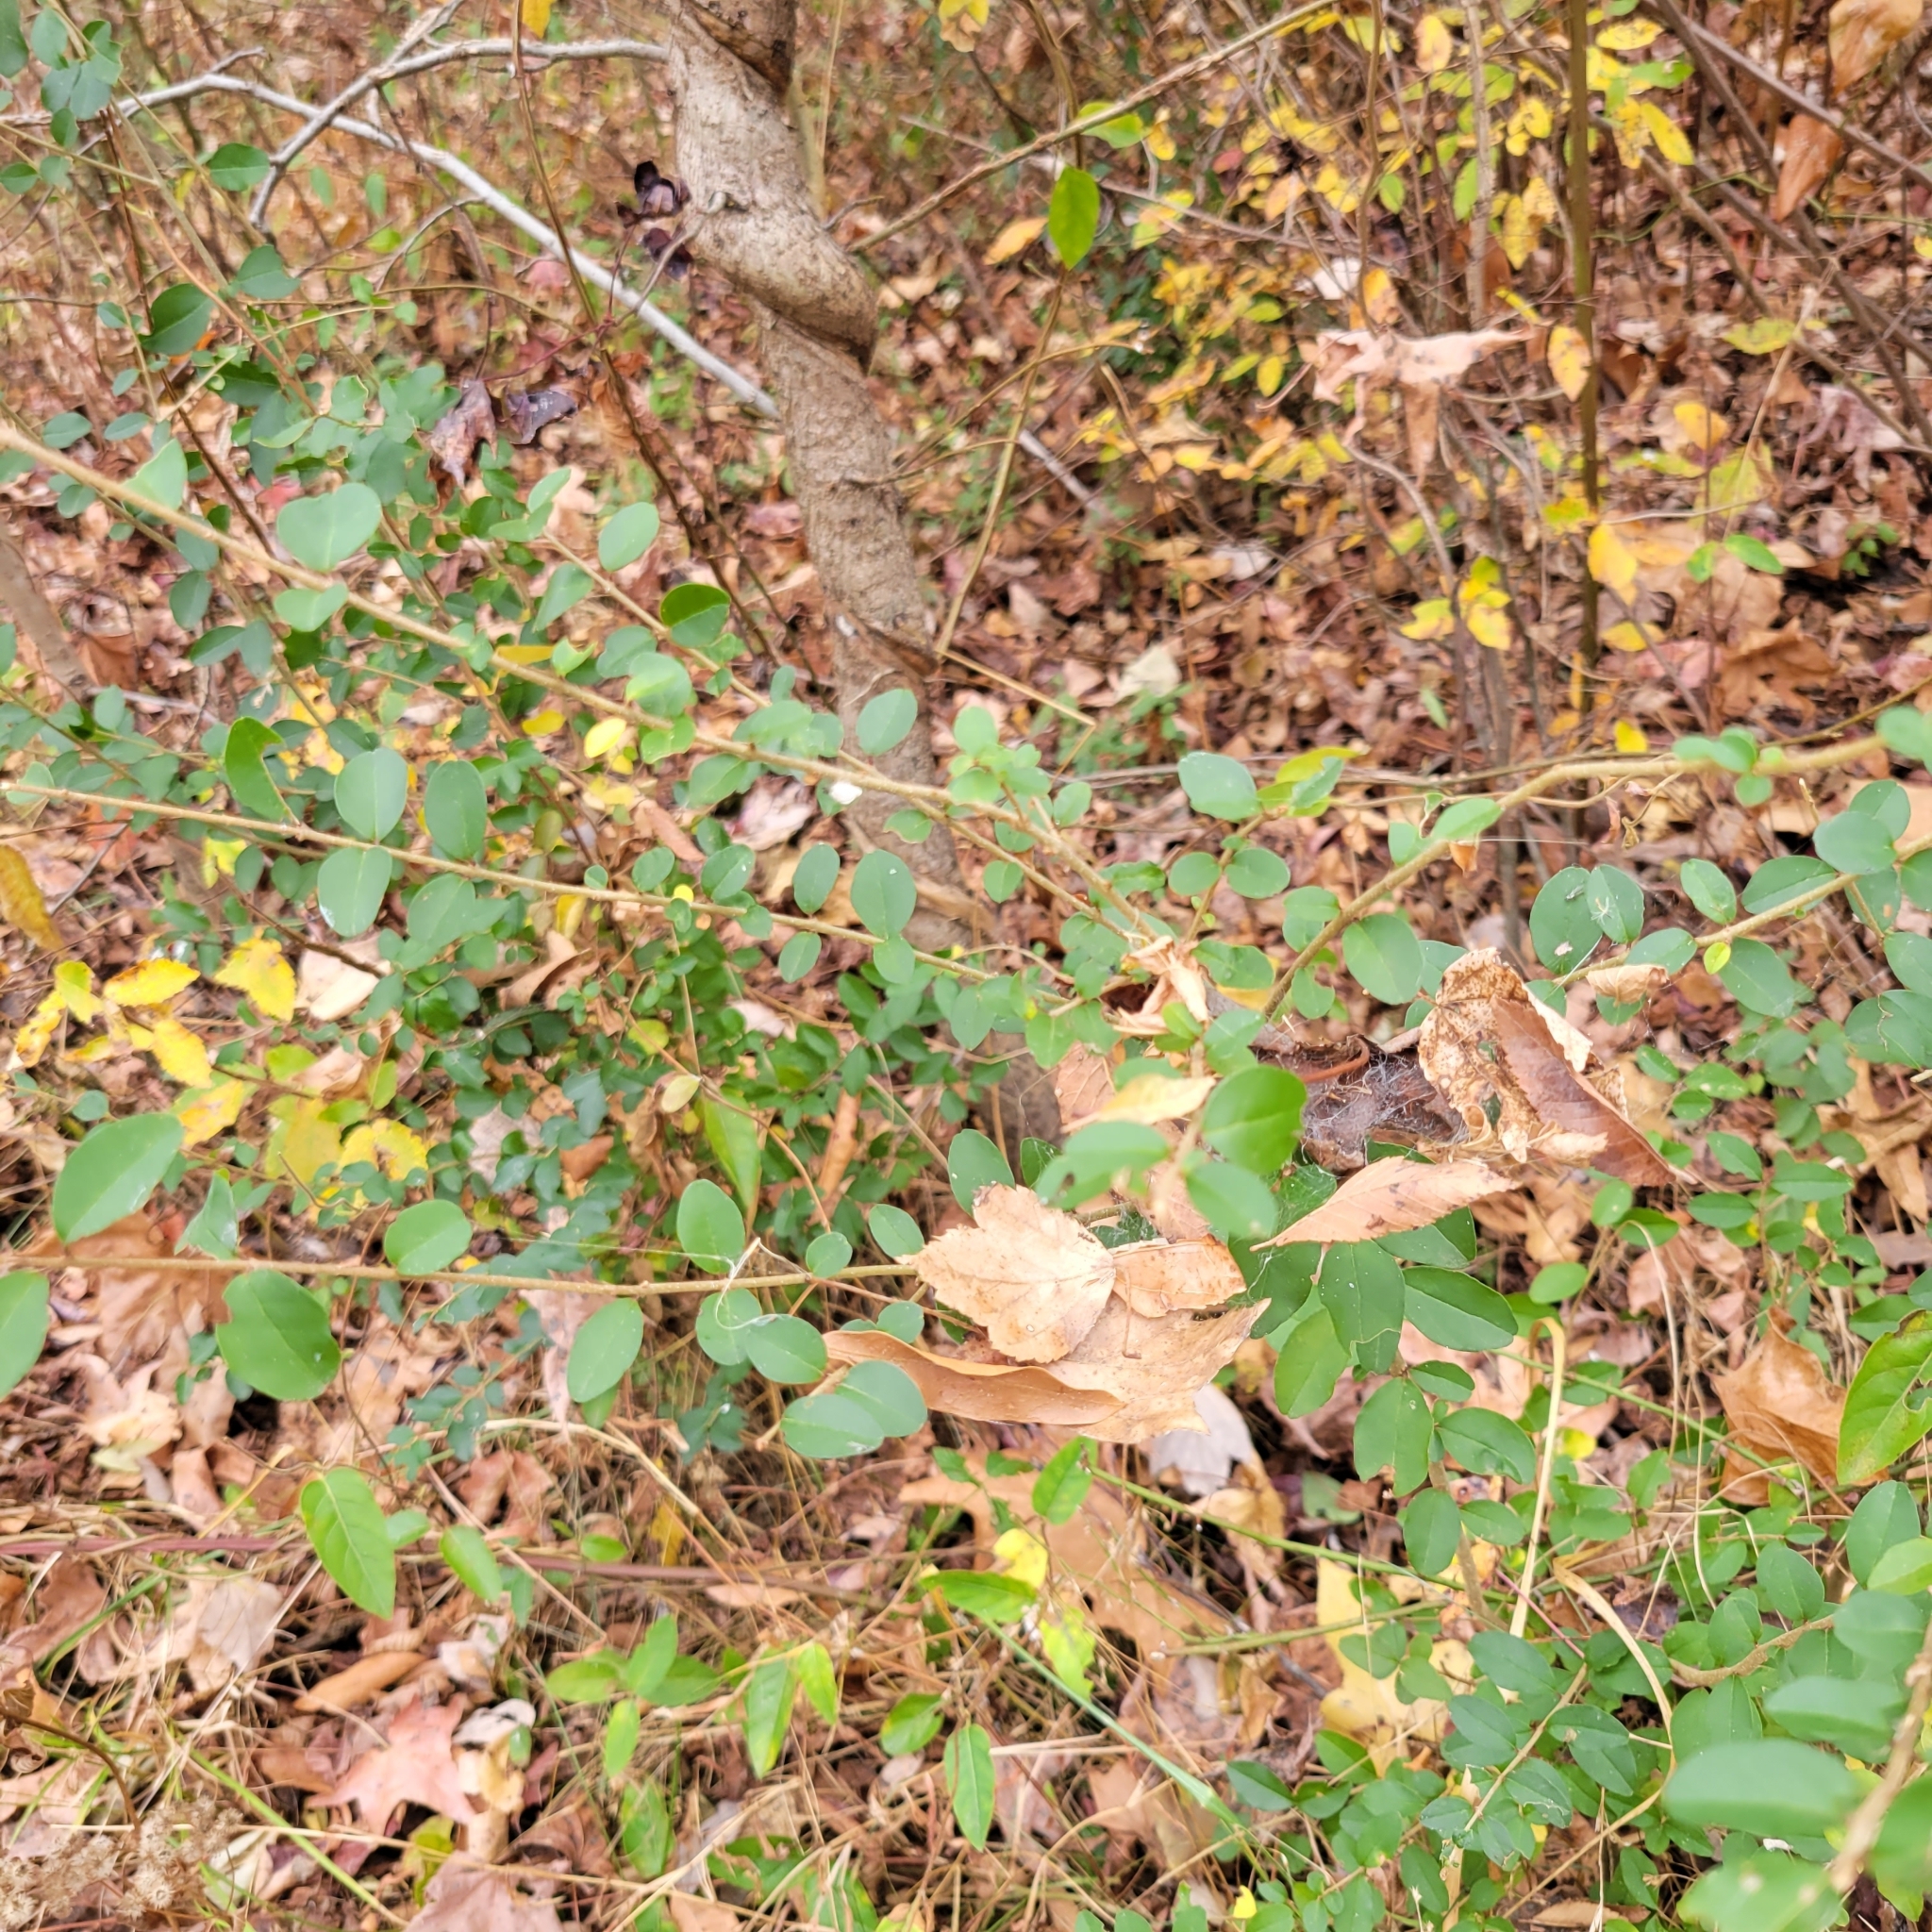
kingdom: Plantae
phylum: Tracheophyta
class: Magnoliopsida
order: Lamiales
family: Oleaceae
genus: Ligustrum
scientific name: Ligustrum sinense
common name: Chinese privet
